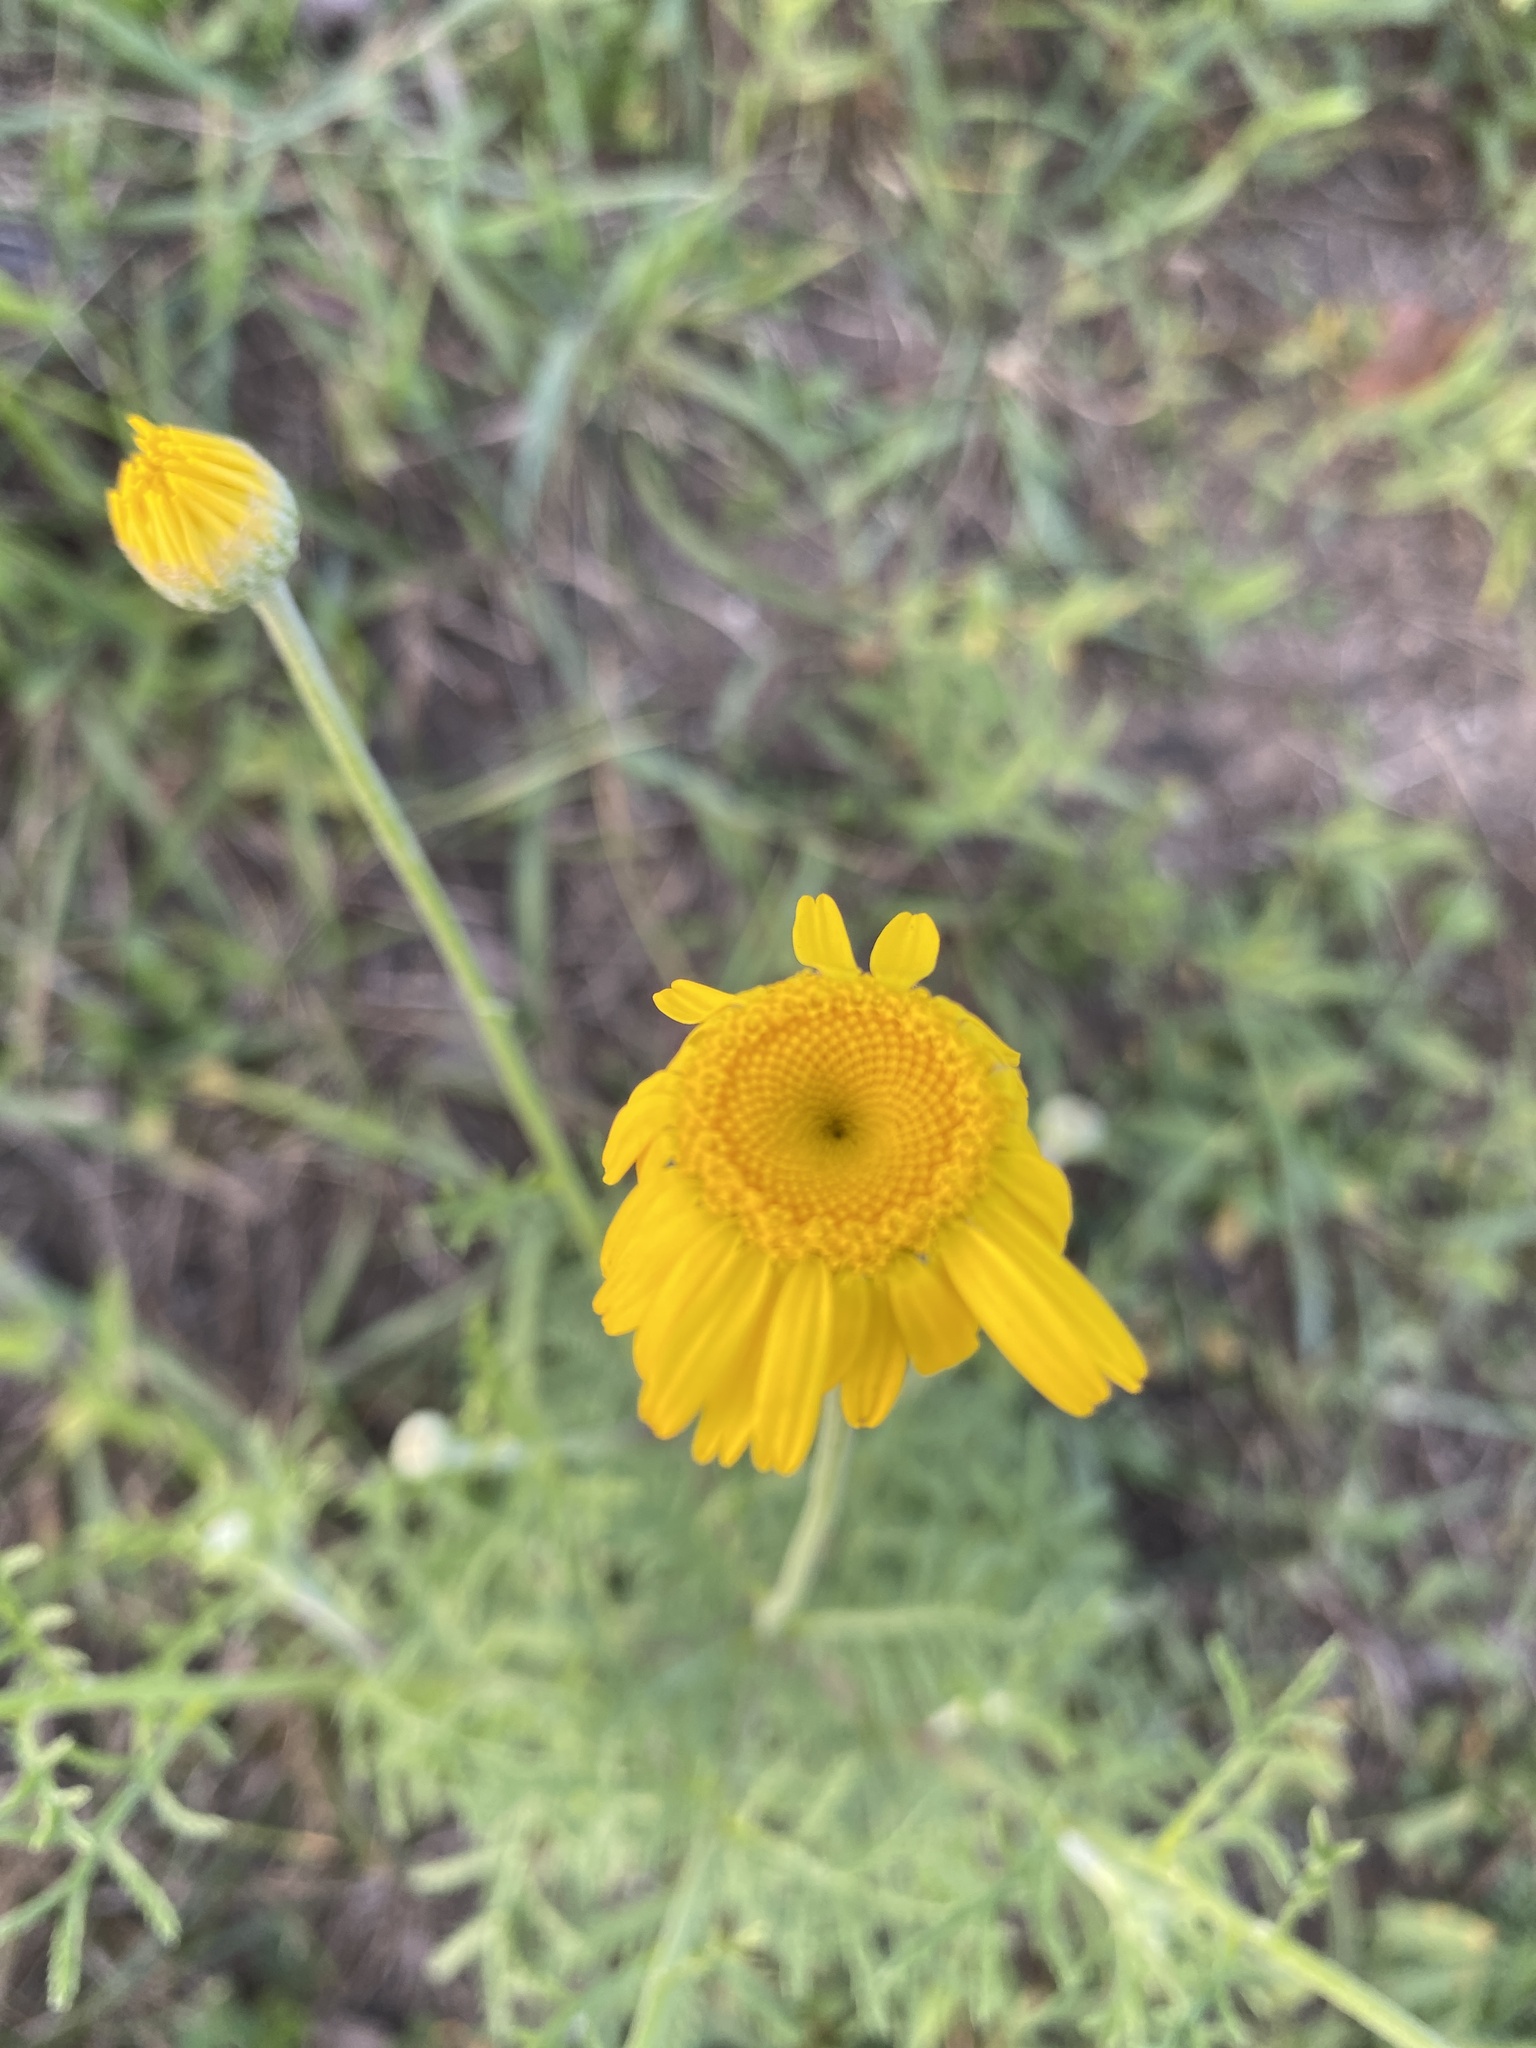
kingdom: Plantae
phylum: Tracheophyta
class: Magnoliopsida
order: Asterales
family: Asteraceae
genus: Cota
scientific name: Cota tinctoria
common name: Golden chamomile
